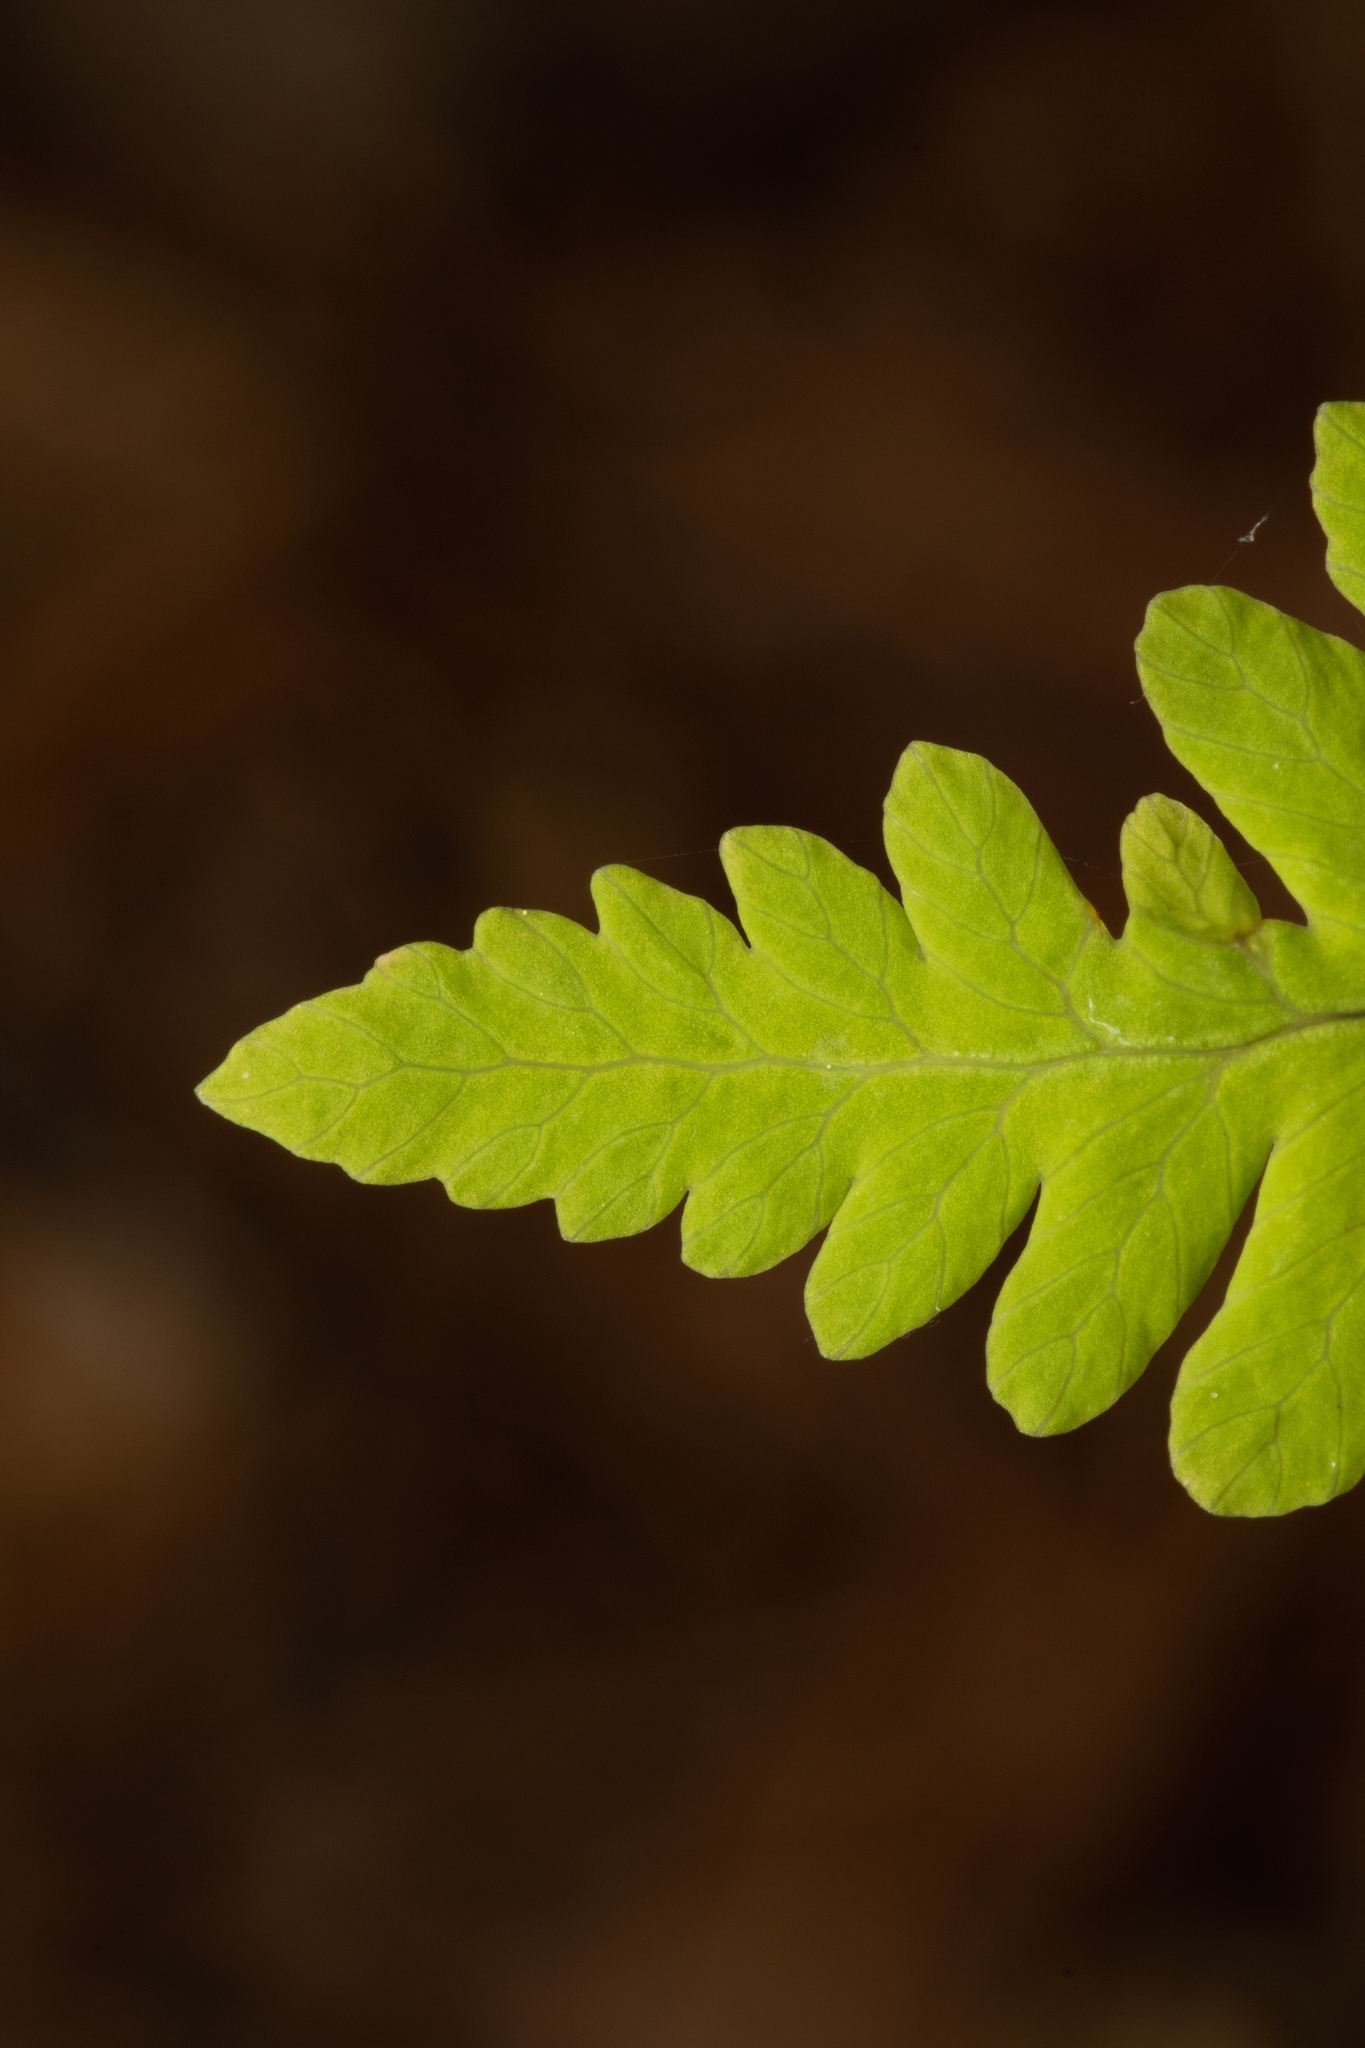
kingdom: Plantae
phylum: Tracheophyta
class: Polypodiopsida
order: Polypodiales
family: Cystopteridaceae
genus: Gymnocarpium
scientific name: Gymnocarpium dryopteris
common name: Oak fern
